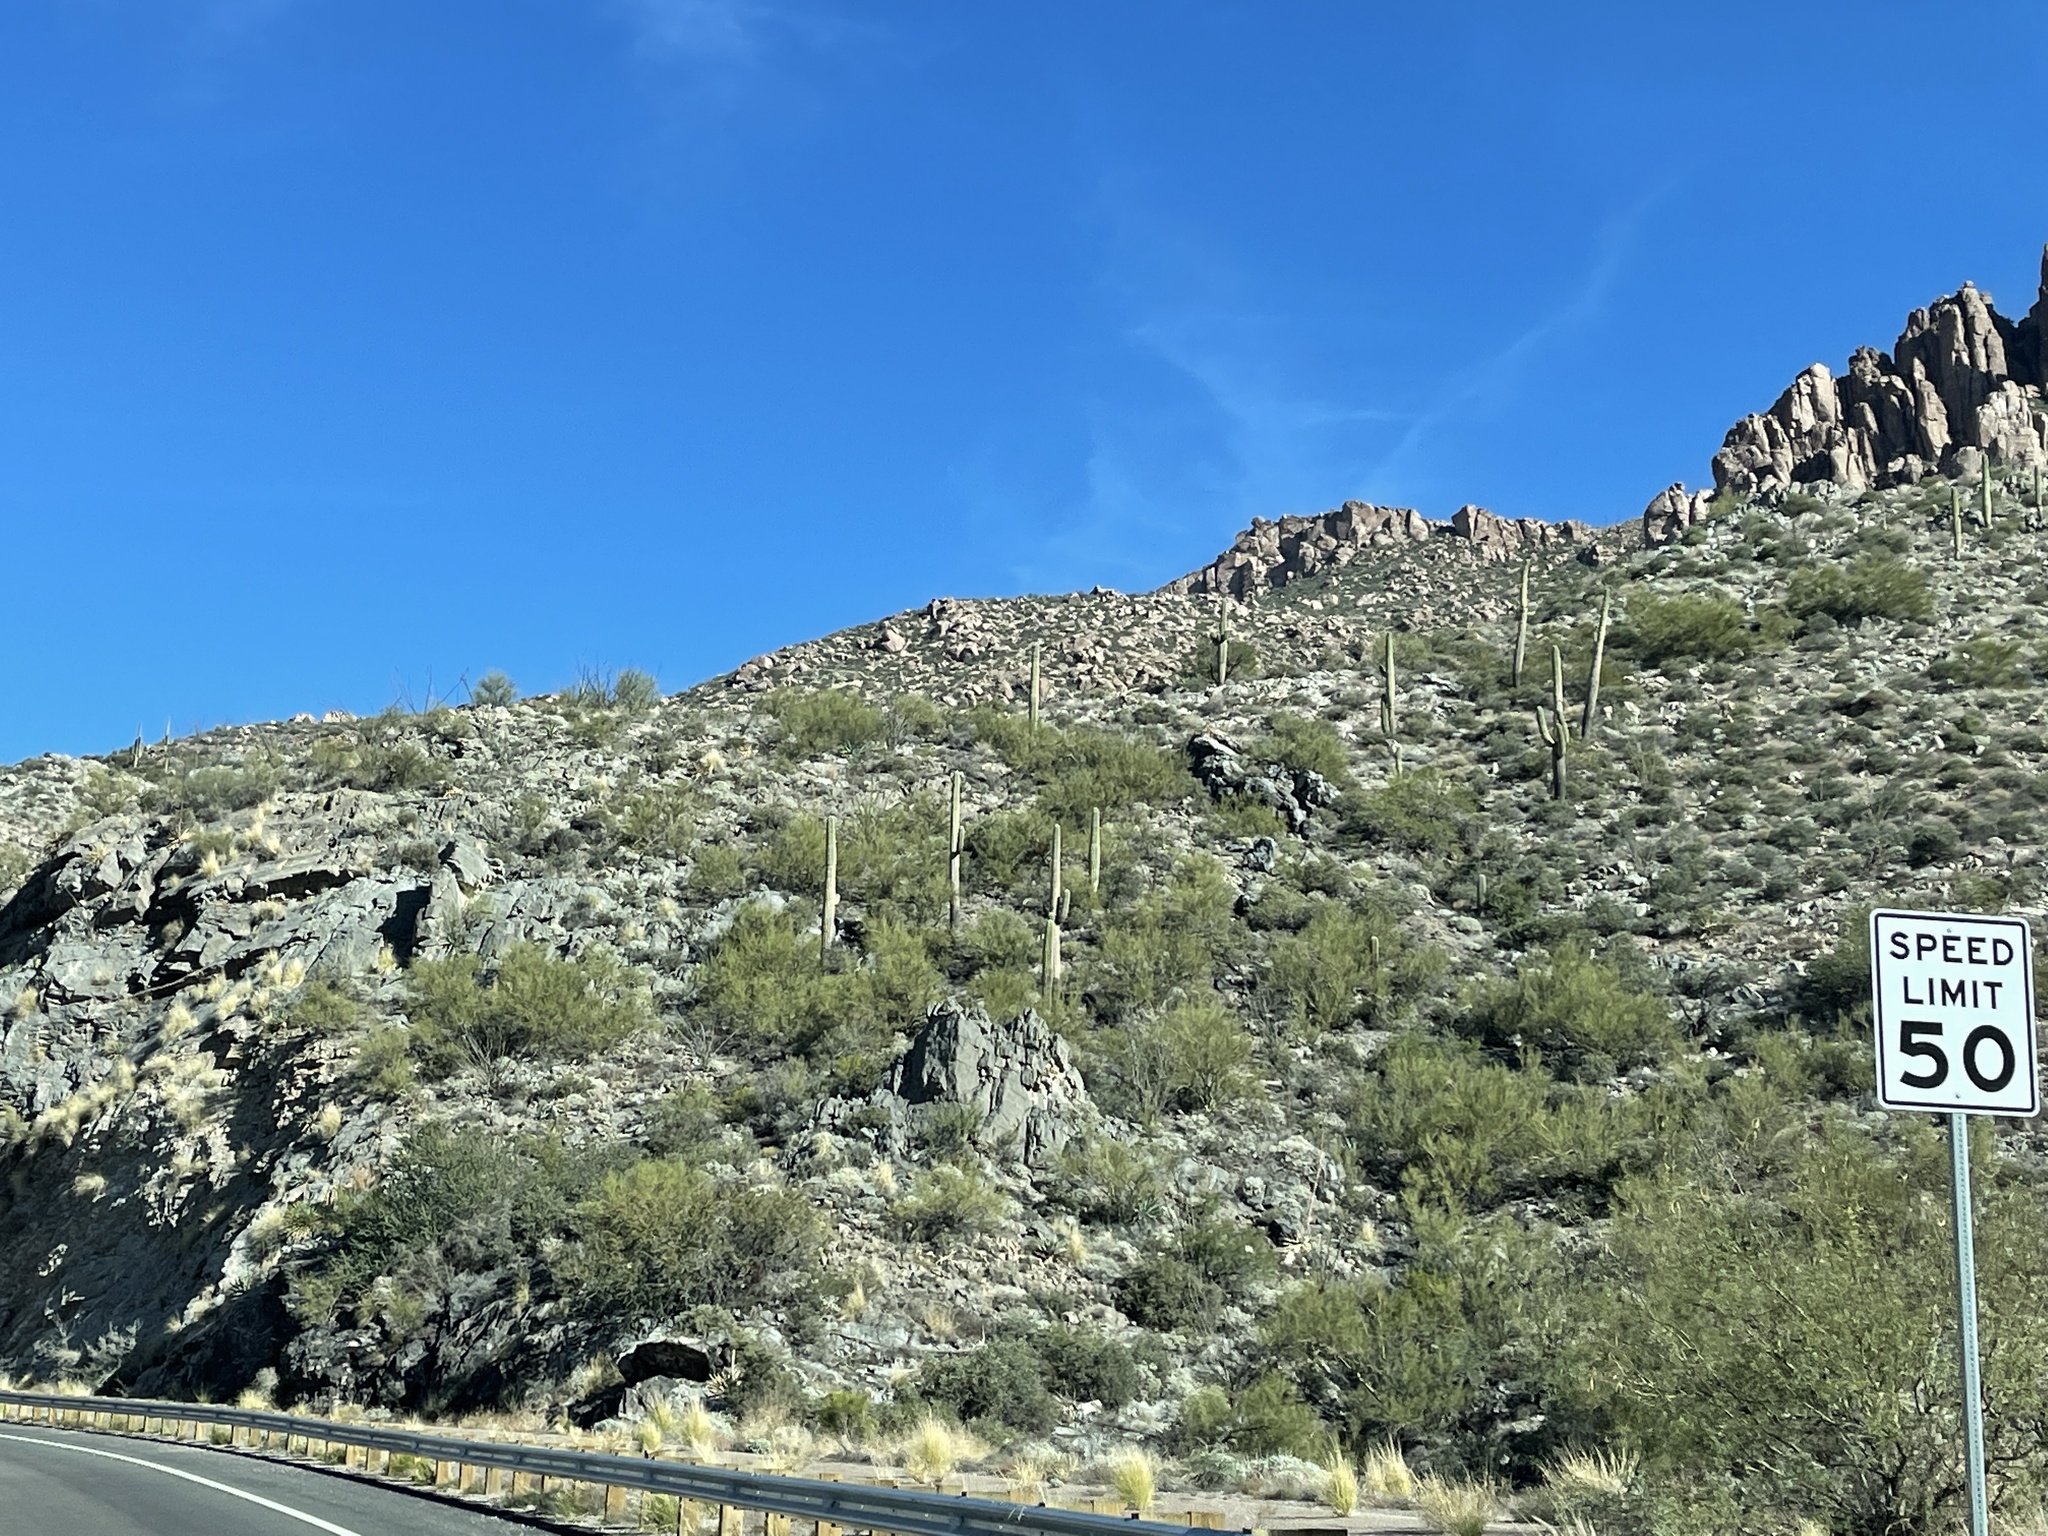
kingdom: Plantae
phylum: Tracheophyta
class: Magnoliopsida
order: Caryophyllales
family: Cactaceae
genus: Carnegiea
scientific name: Carnegiea gigantea
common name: Saguaro
